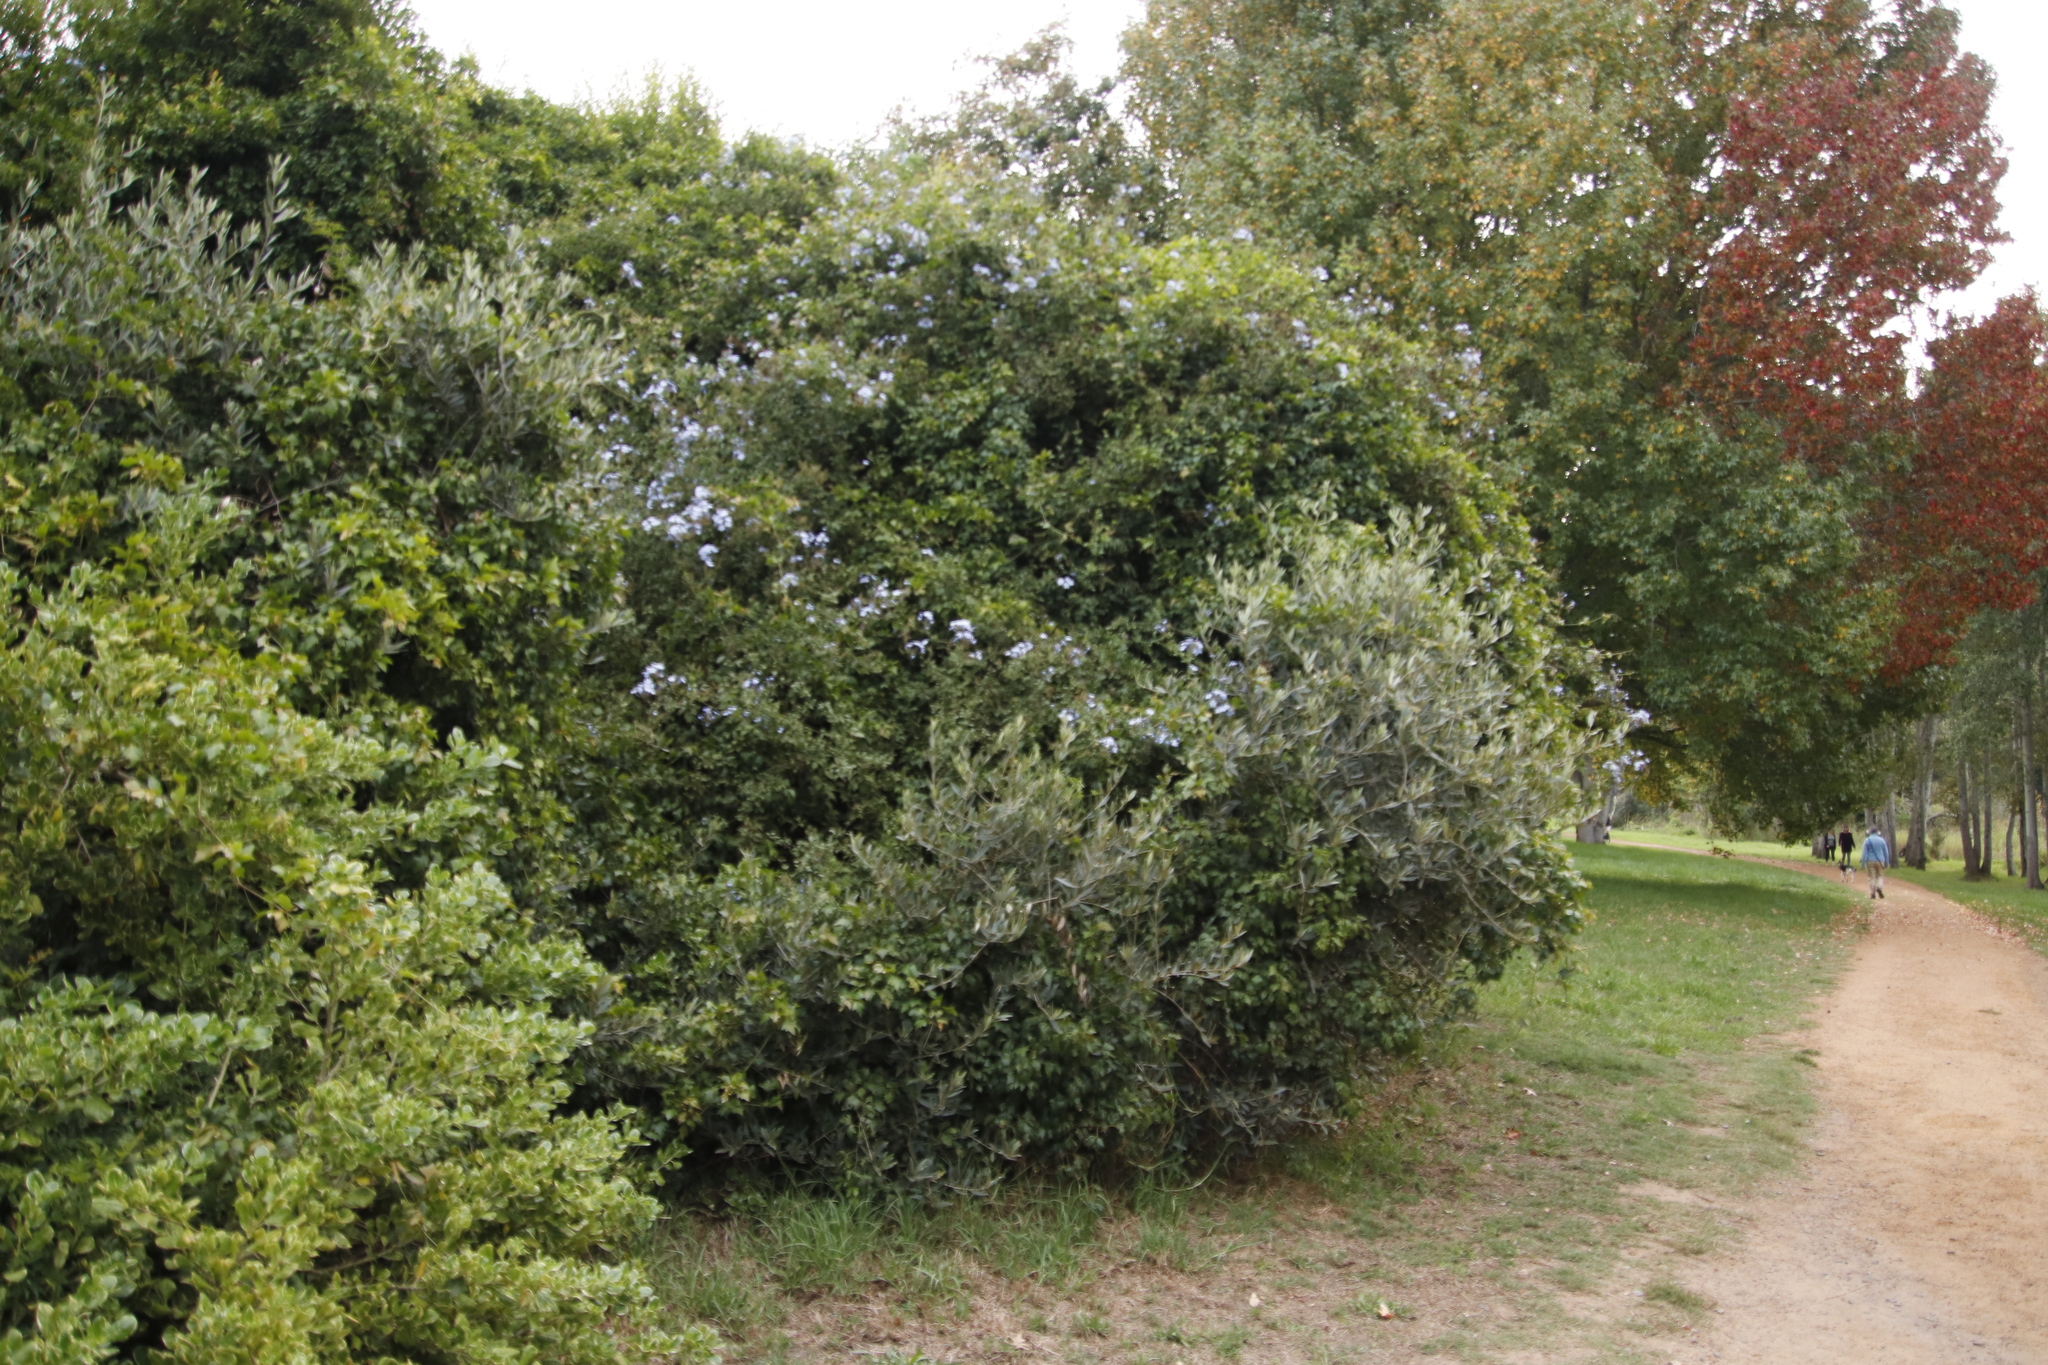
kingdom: Plantae
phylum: Tracheophyta
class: Magnoliopsida
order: Caryophyllales
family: Plumbaginaceae
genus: Plumbago
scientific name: Plumbago auriculata
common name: Cape leadwort
